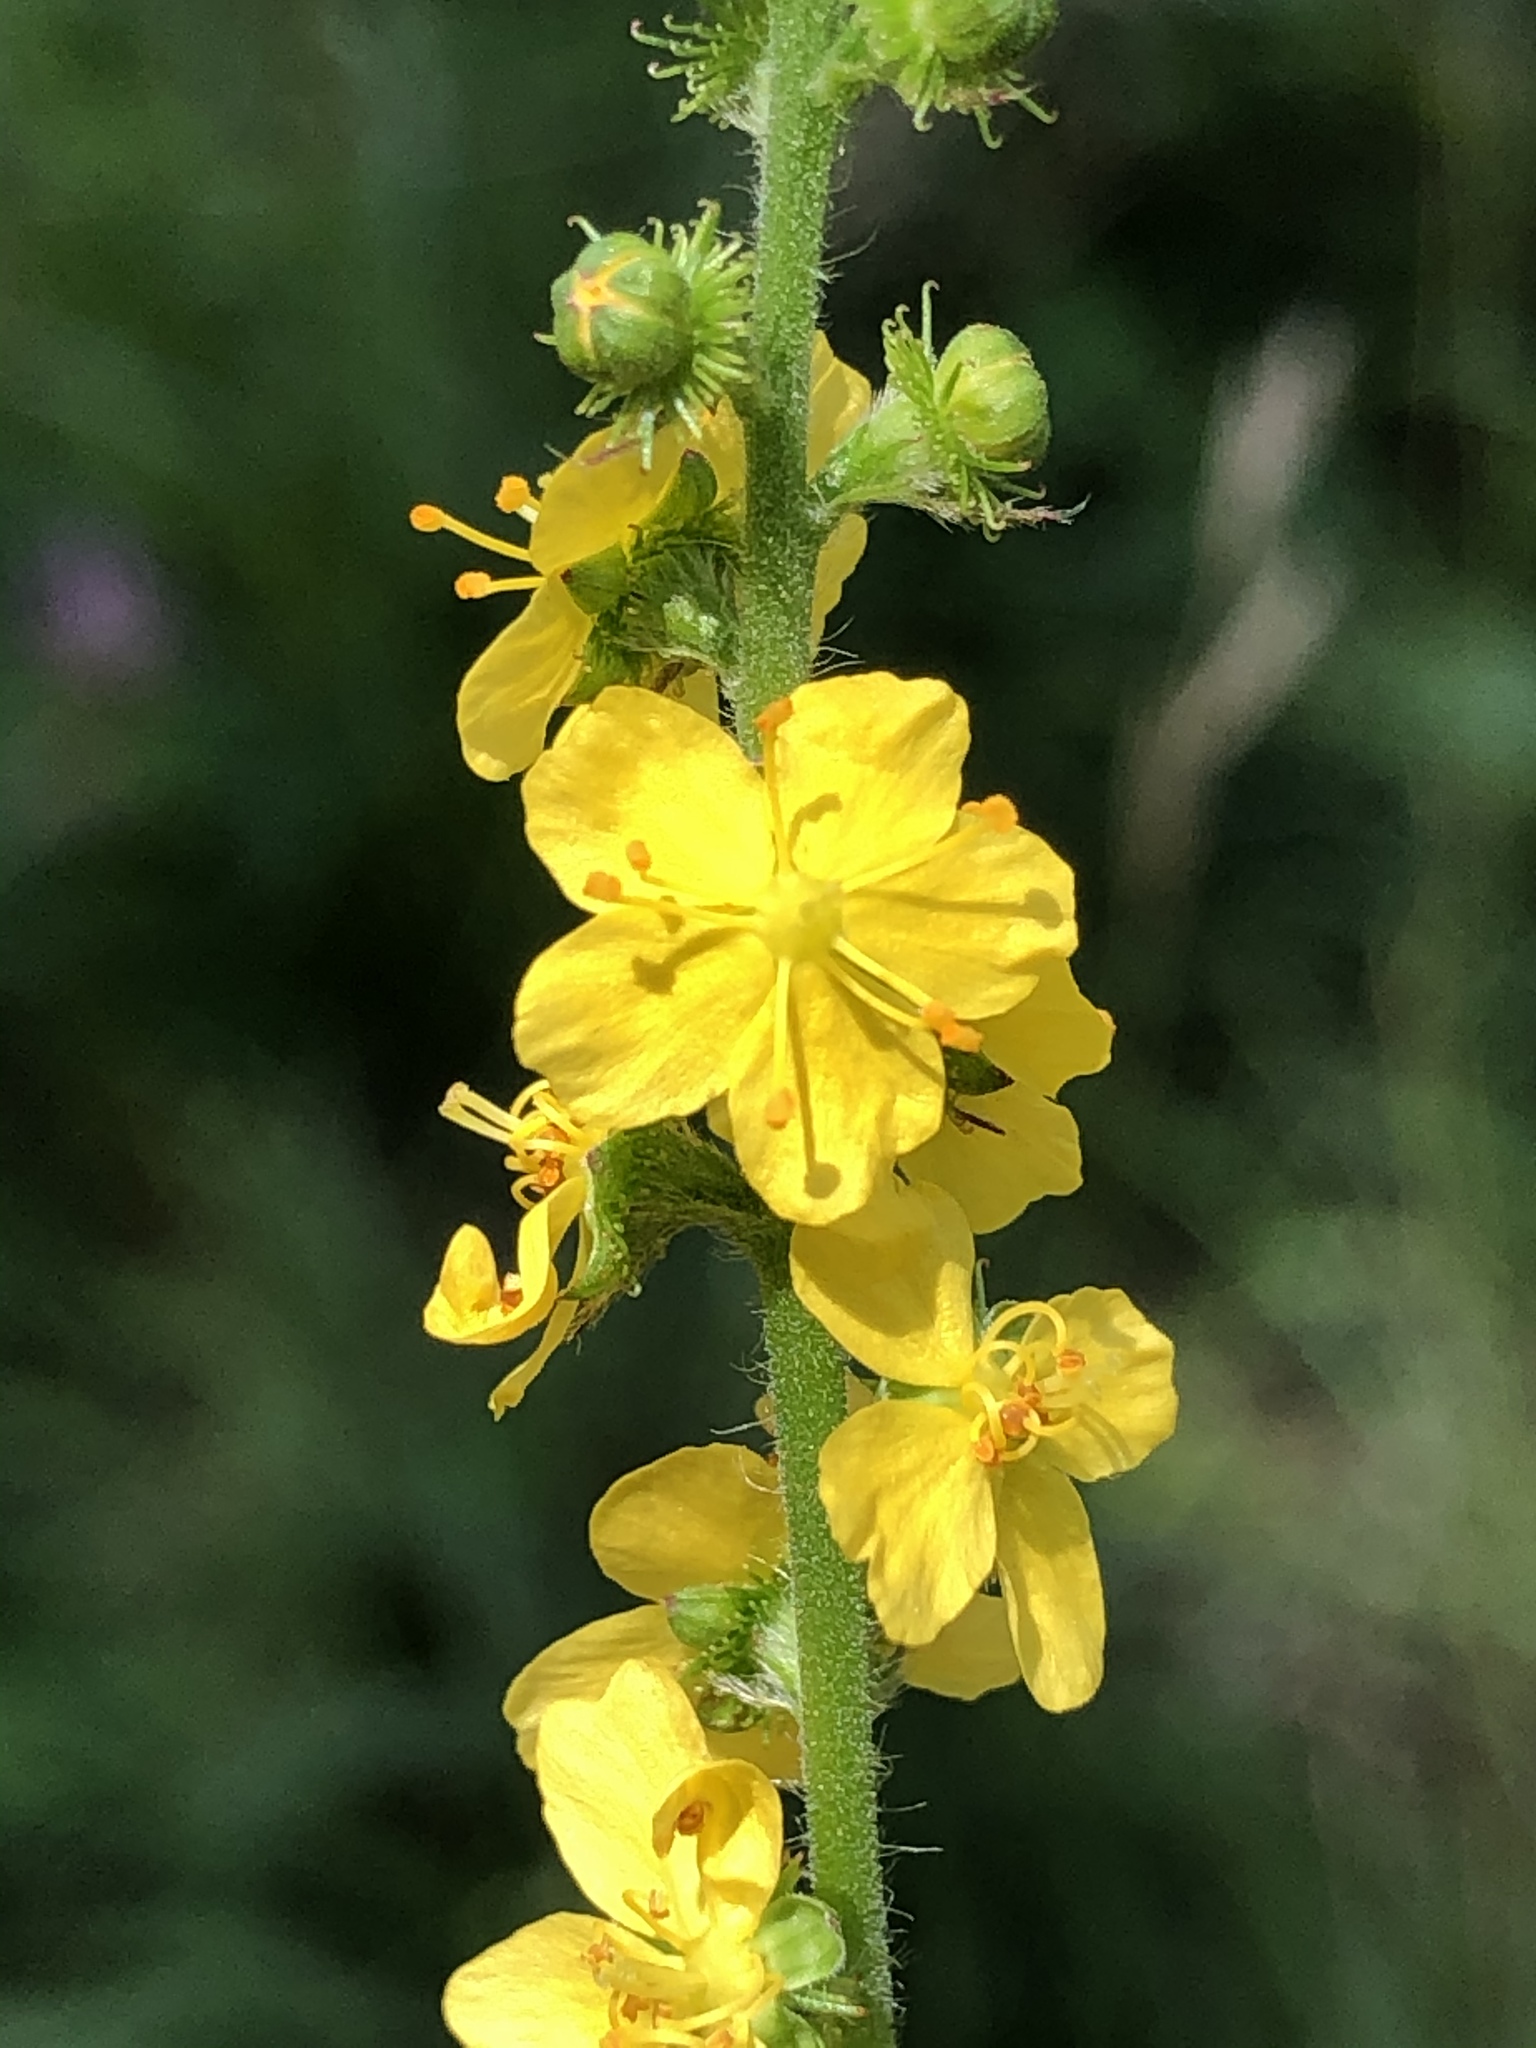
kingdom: Plantae
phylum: Tracheophyta
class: Magnoliopsida
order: Rosales
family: Rosaceae
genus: Agrimonia
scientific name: Agrimonia eupatoria
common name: Agrimony
